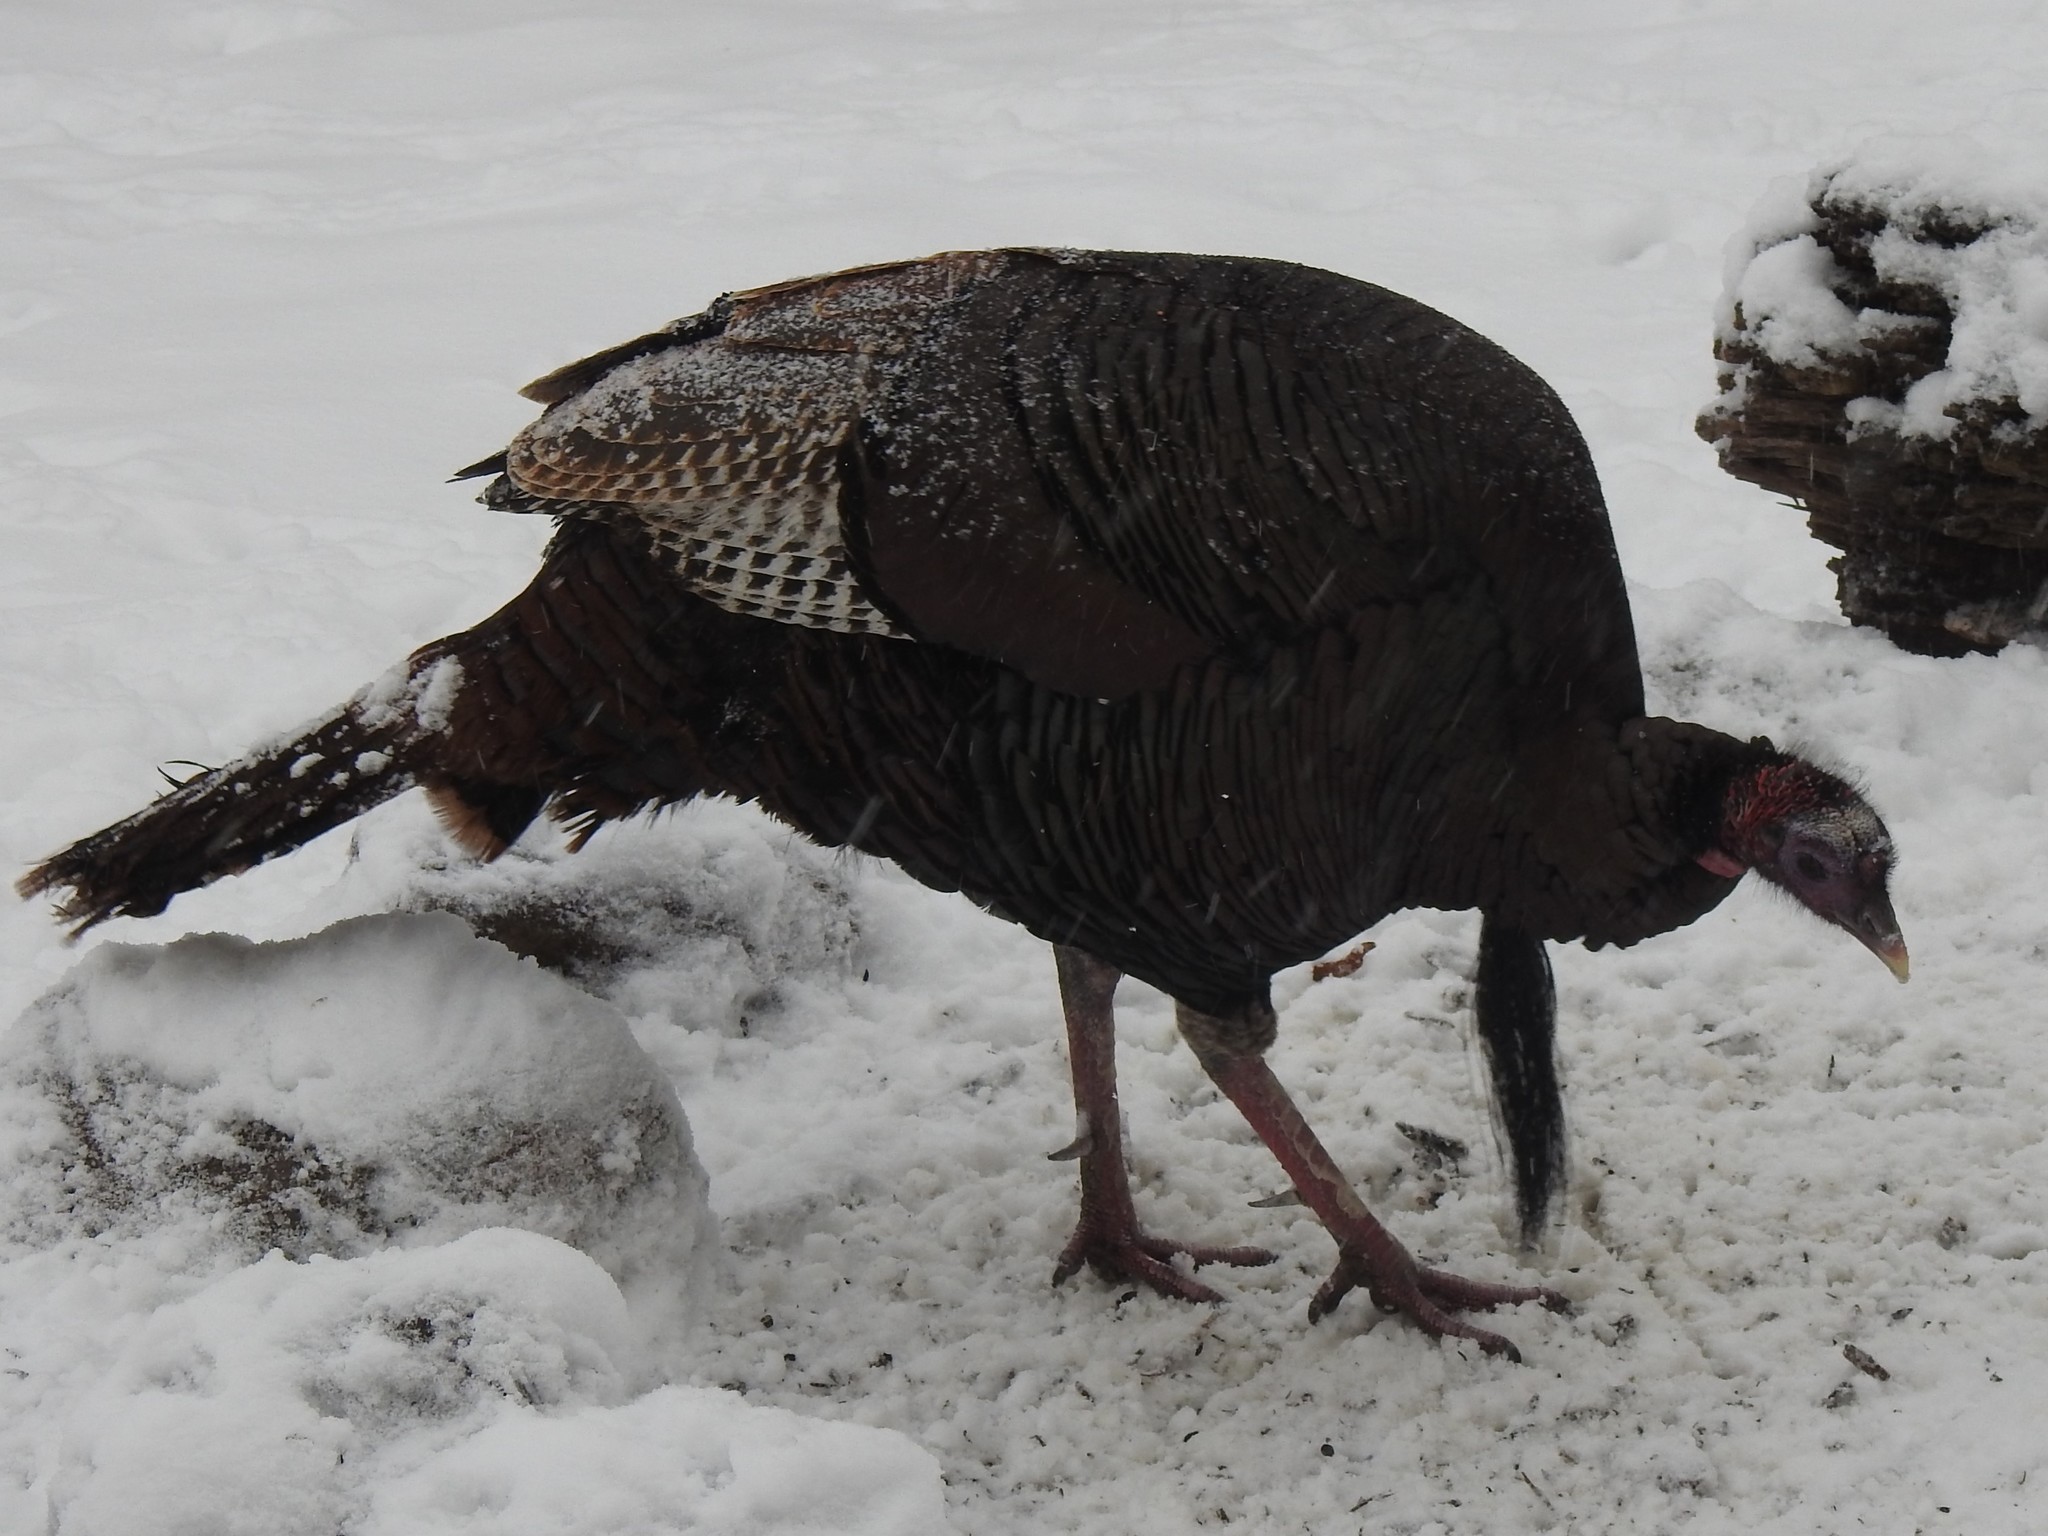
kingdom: Animalia
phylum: Chordata
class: Aves
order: Galliformes
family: Phasianidae
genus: Meleagris
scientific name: Meleagris gallopavo
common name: Wild turkey
